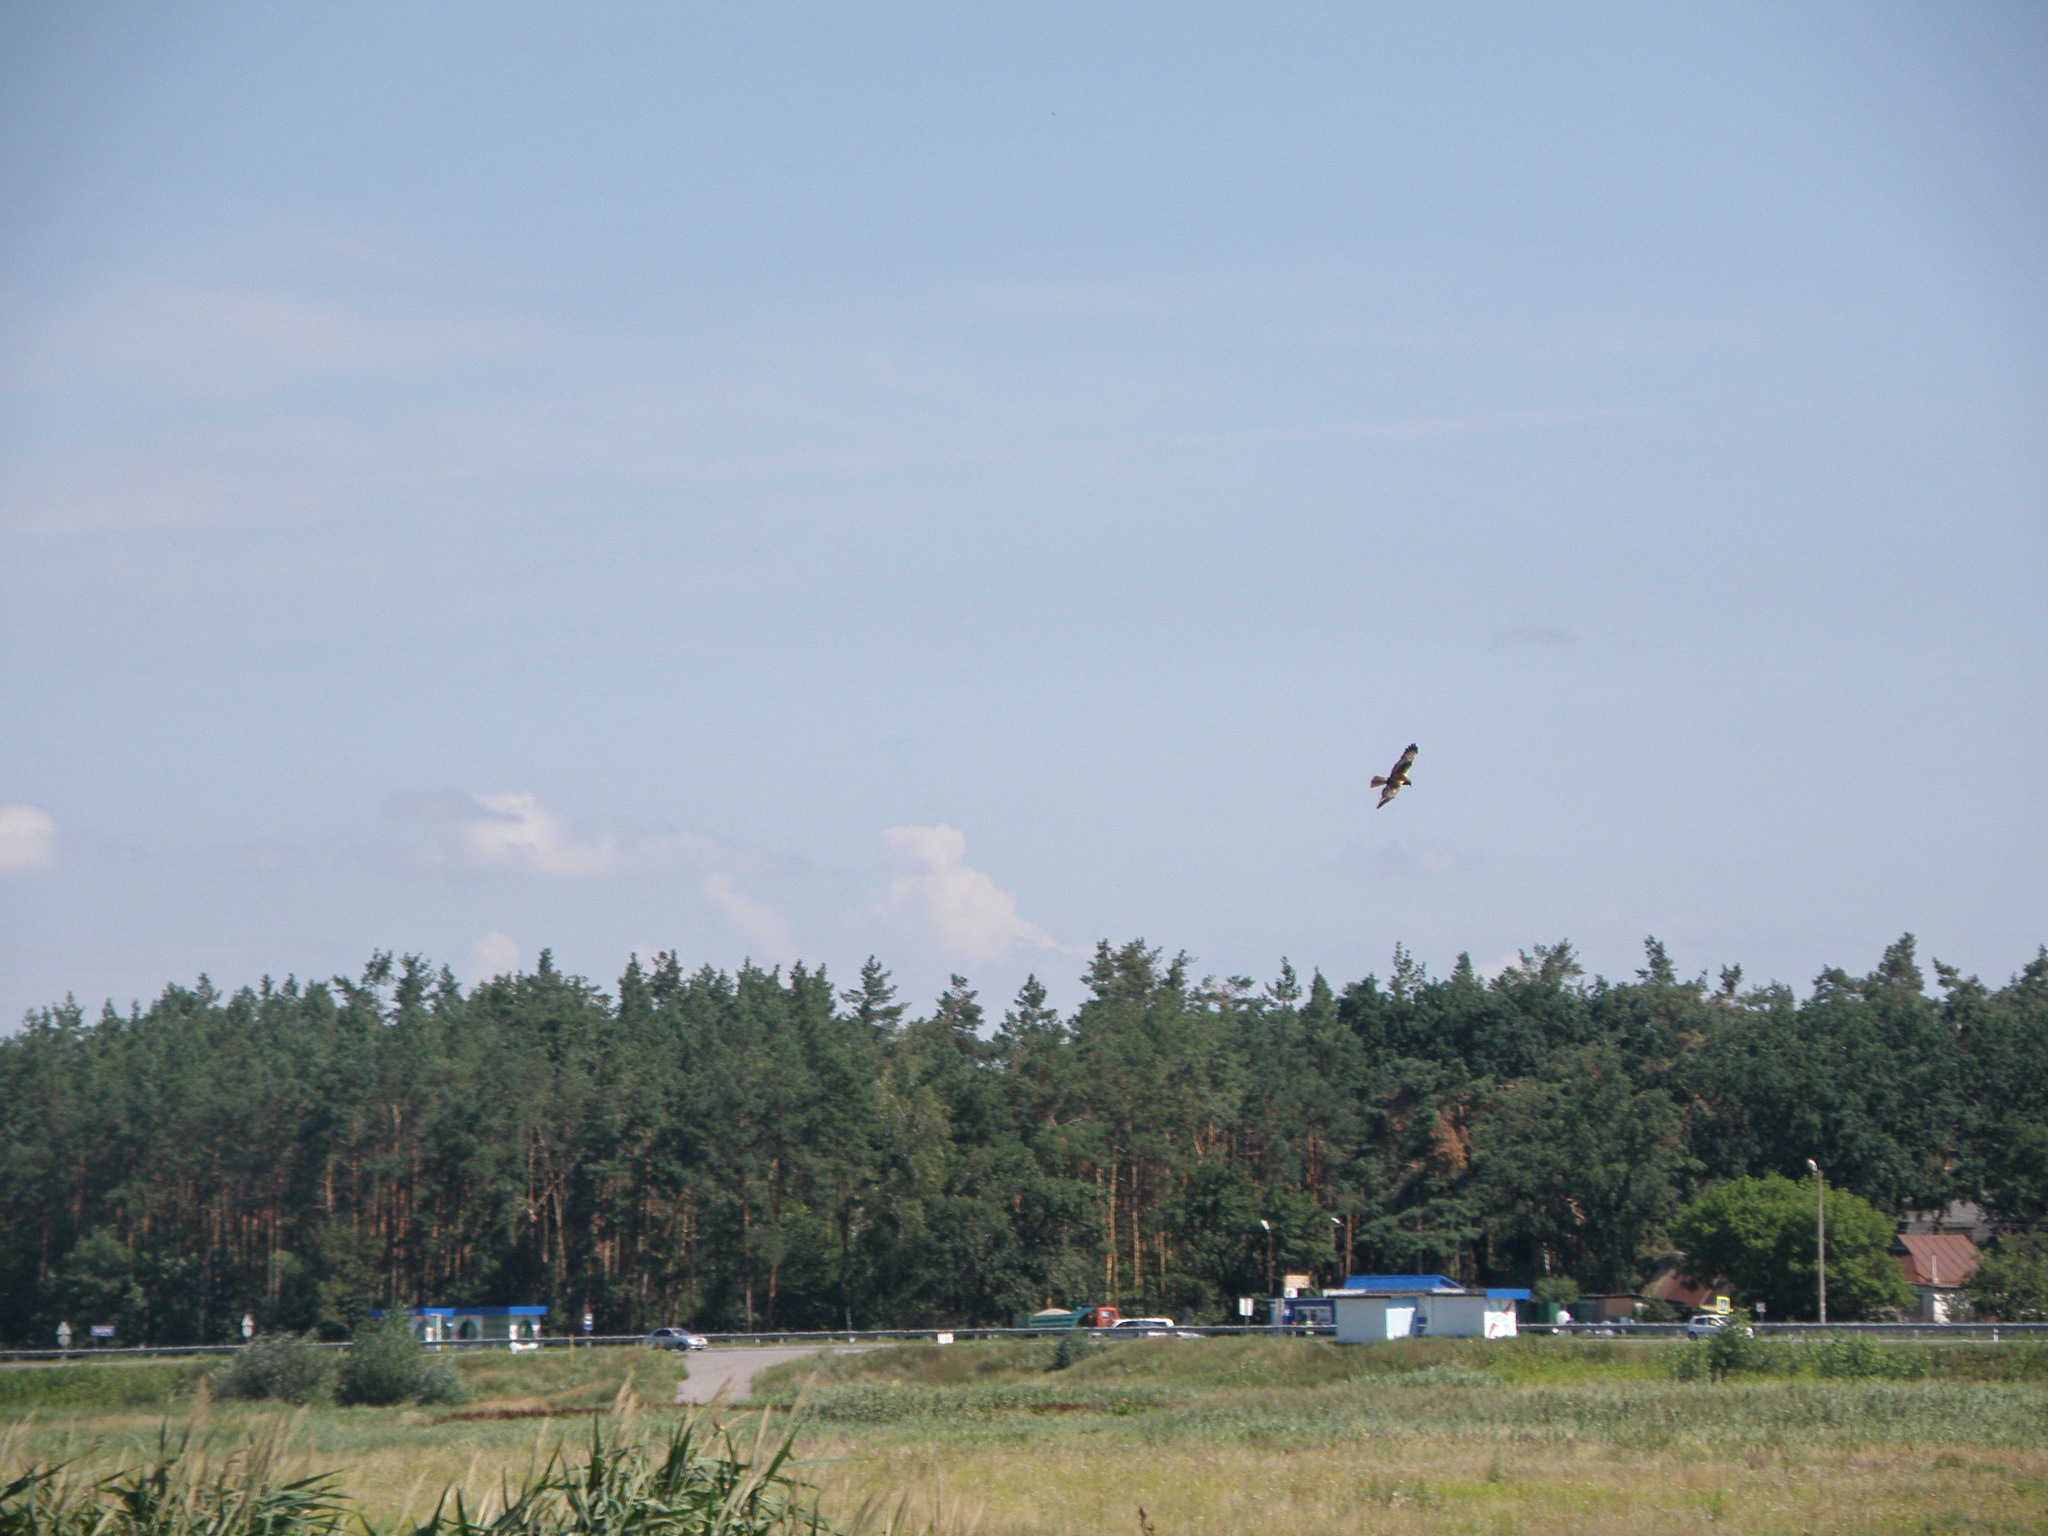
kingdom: Animalia
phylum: Chordata
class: Aves
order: Accipitriformes
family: Accipitridae
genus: Circus
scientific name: Circus aeruginosus
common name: Western marsh harrier
